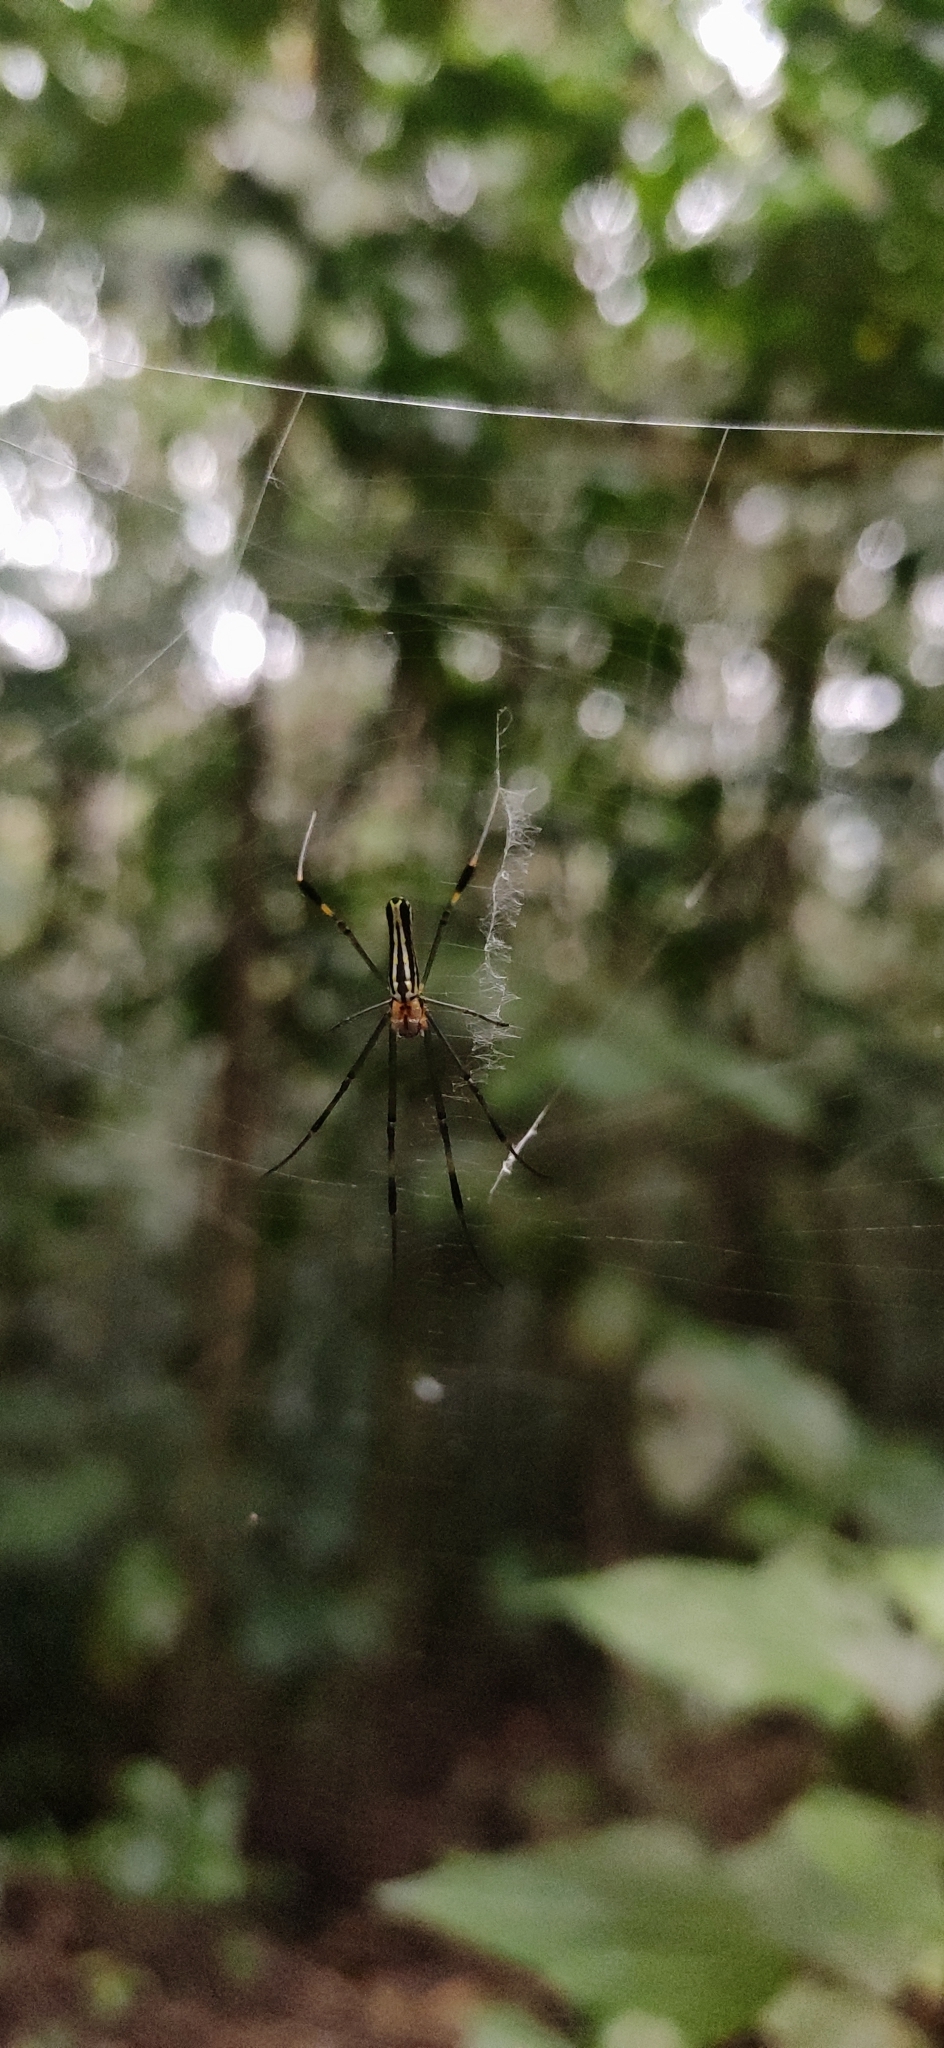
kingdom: Animalia
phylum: Arthropoda
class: Arachnida
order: Araneae
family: Araneidae
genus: Nephila
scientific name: Nephila pilipes
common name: Giant golden orb weaver
